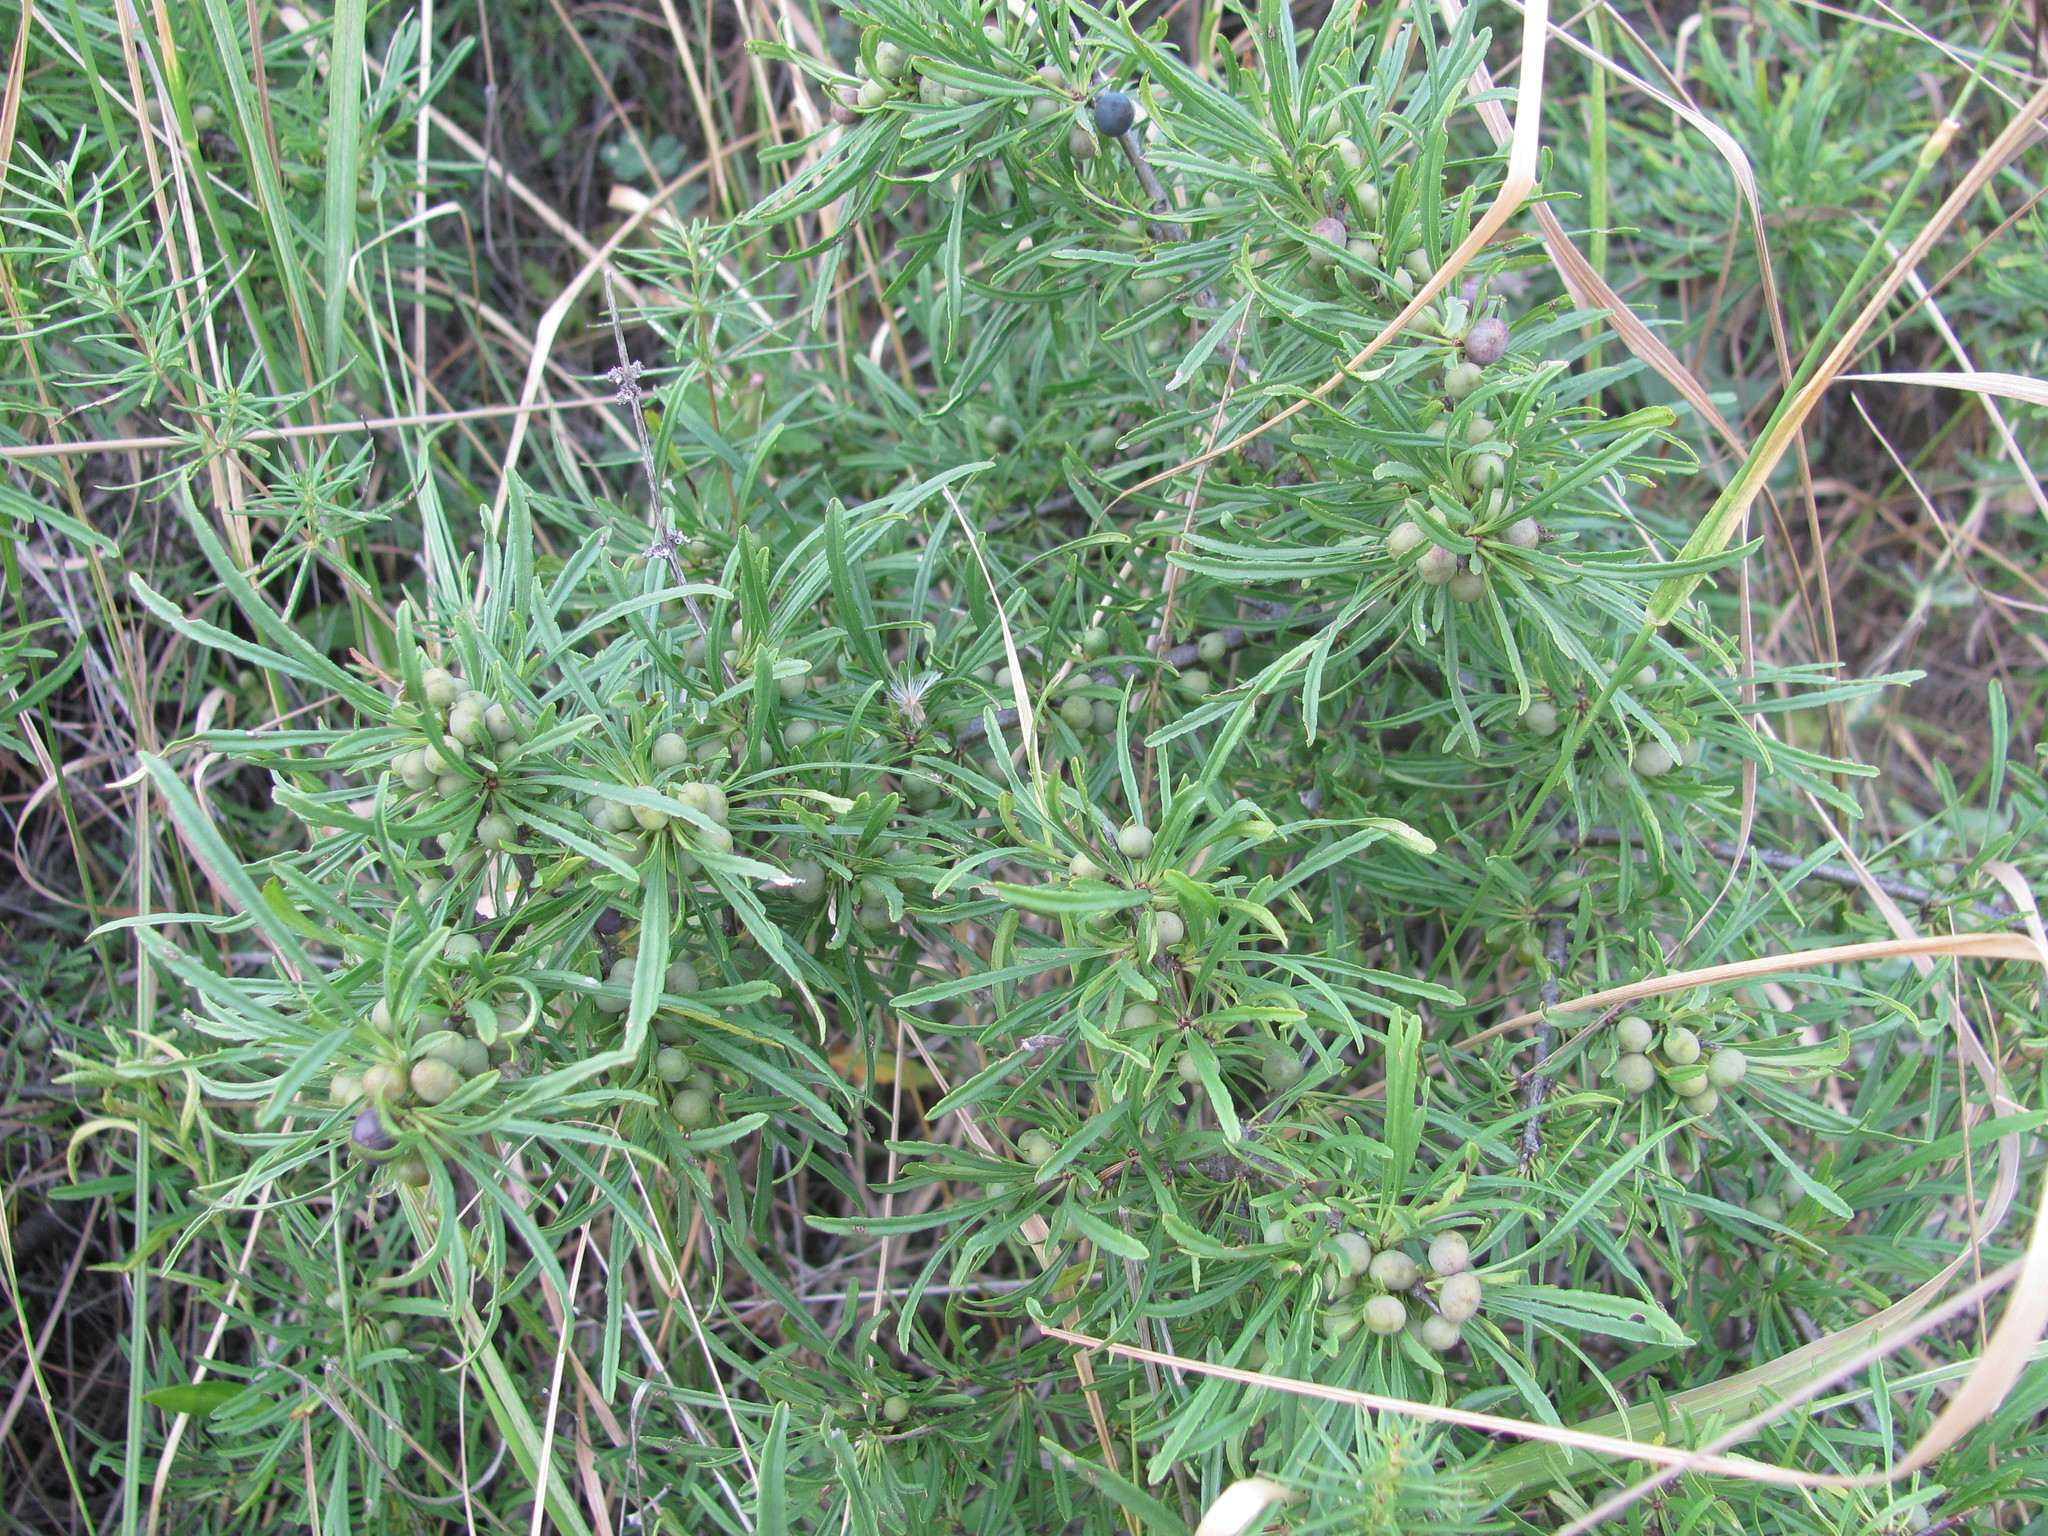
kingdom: Plantae
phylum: Tracheophyta
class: Magnoliopsida
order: Rosales
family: Rhamnaceae
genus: Rhamnus
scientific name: Rhamnus erythroxyloides
